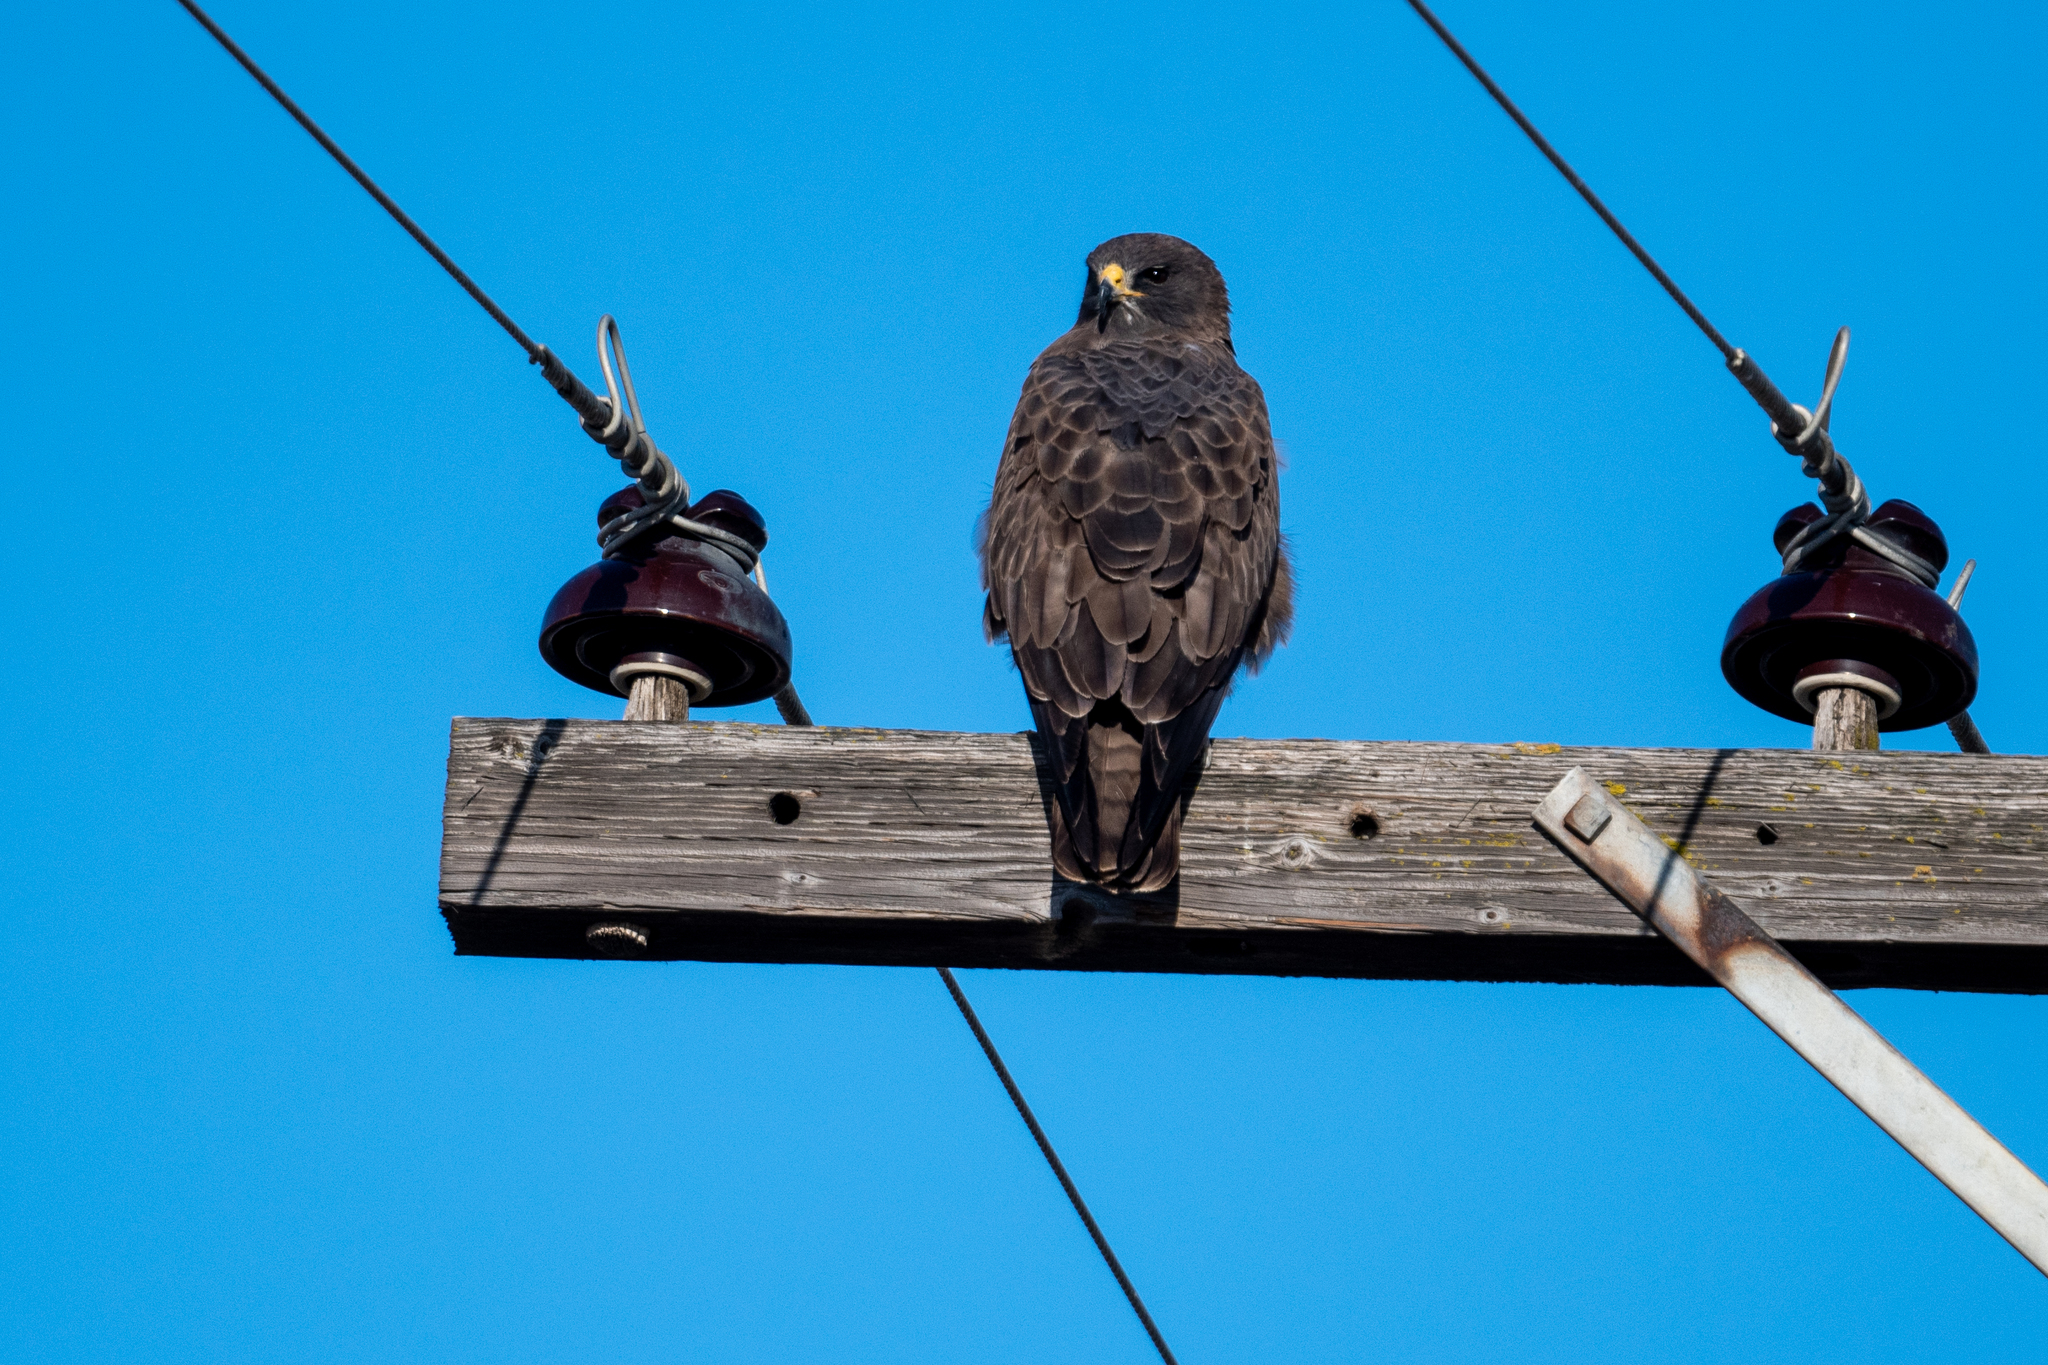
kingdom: Animalia
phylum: Chordata
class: Aves
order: Accipitriformes
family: Accipitridae
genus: Buteo
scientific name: Buteo swainsoni
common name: Swainson's hawk
